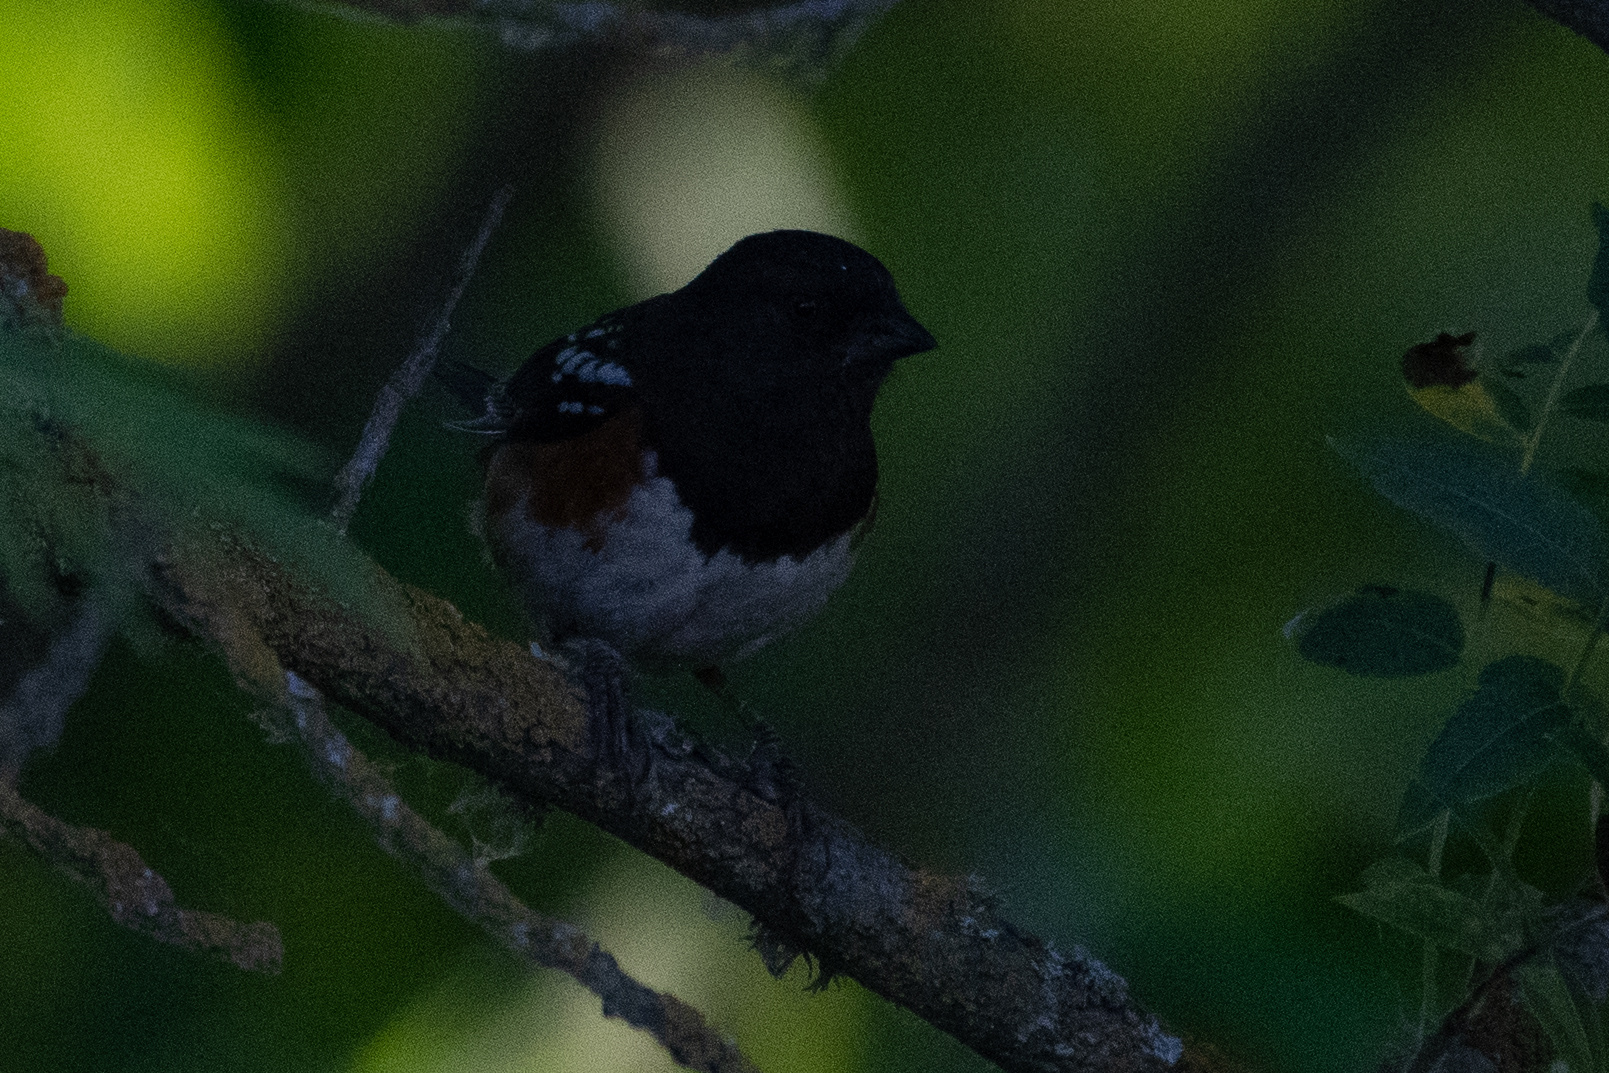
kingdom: Animalia
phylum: Chordata
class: Aves
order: Passeriformes
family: Passerellidae
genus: Pipilo
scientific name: Pipilo maculatus
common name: Spotted towhee
